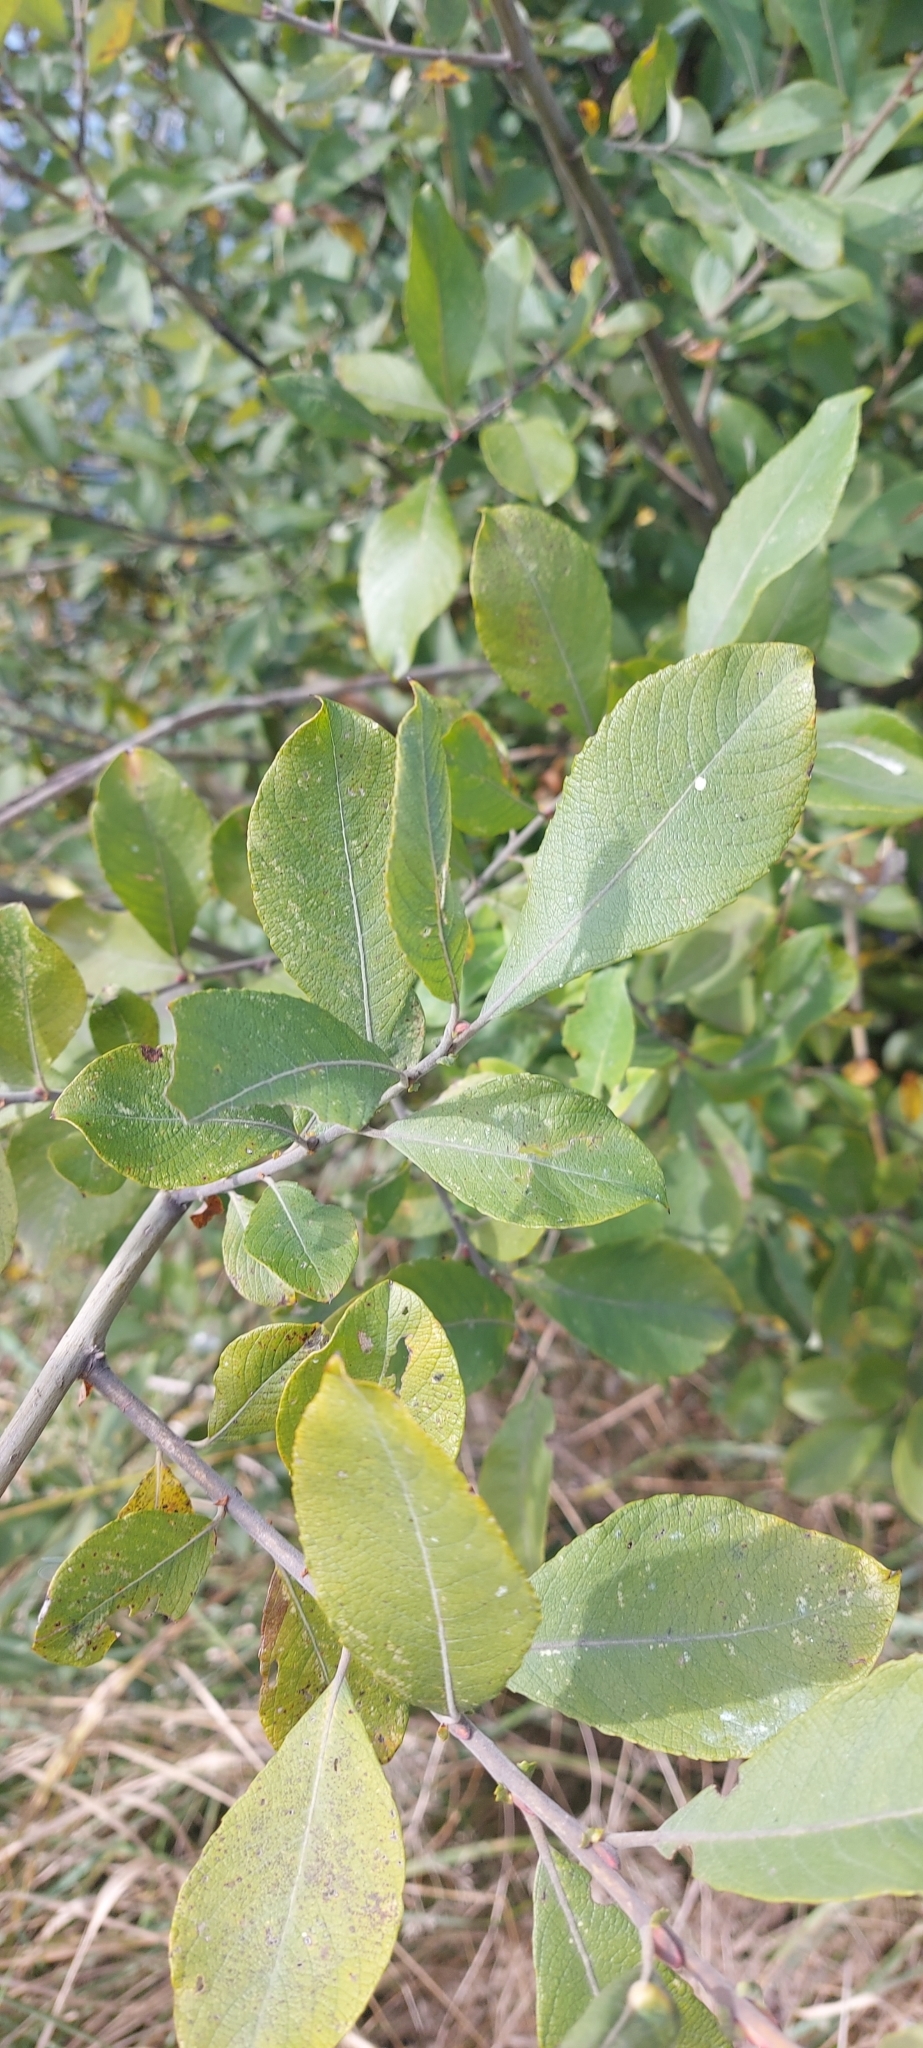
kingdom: Plantae
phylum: Tracheophyta
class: Magnoliopsida
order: Malpighiales
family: Salicaceae
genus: Salix
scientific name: Salix cinerea
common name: Common sallow
